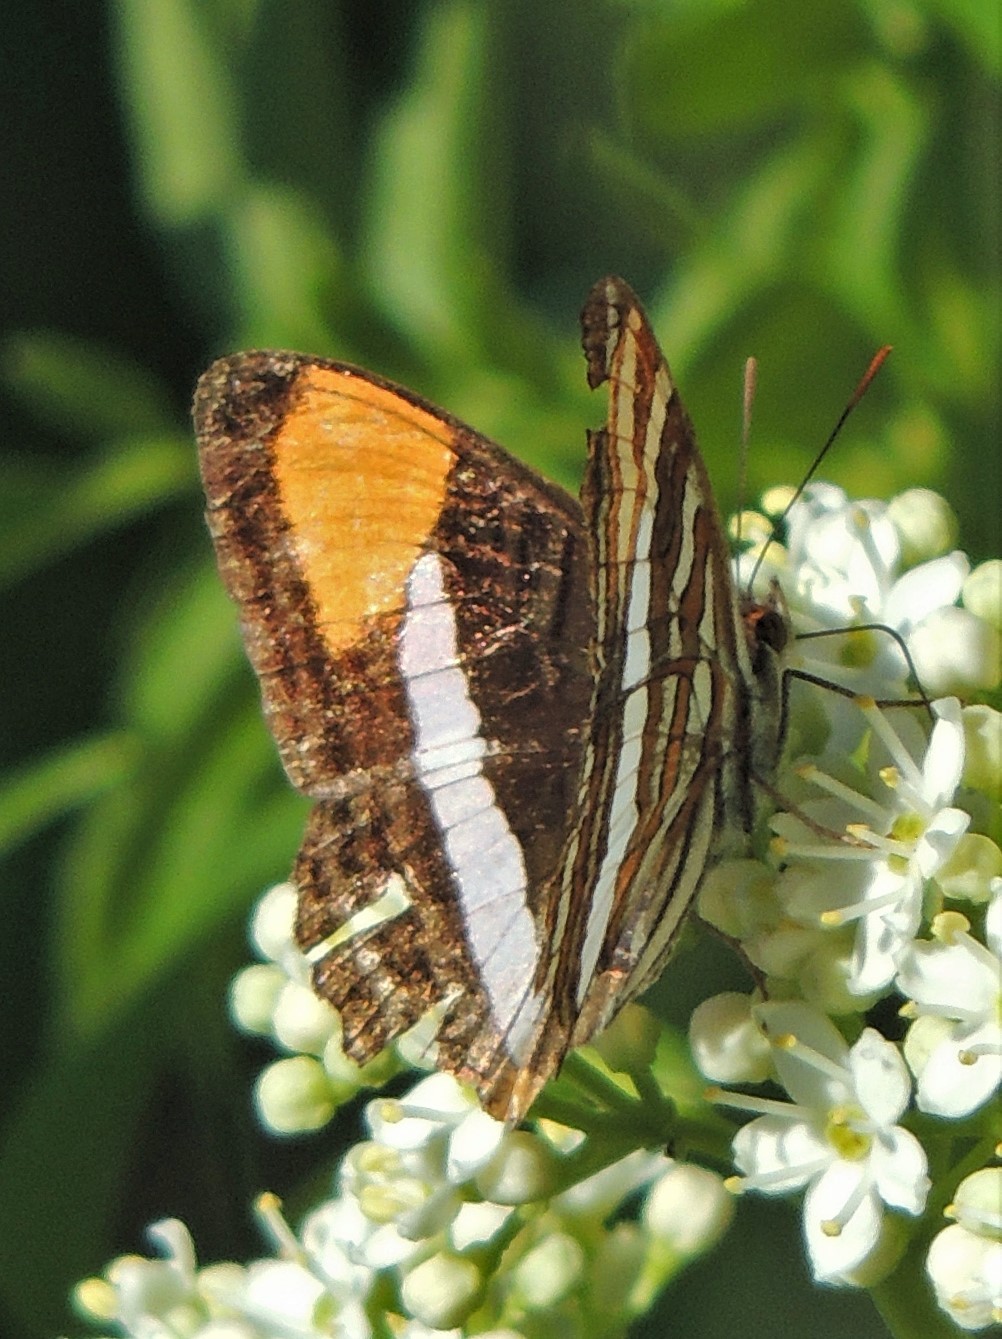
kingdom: Animalia
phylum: Arthropoda
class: Insecta
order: Lepidoptera
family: Nymphalidae
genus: Limenitis
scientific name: Limenitis syma
